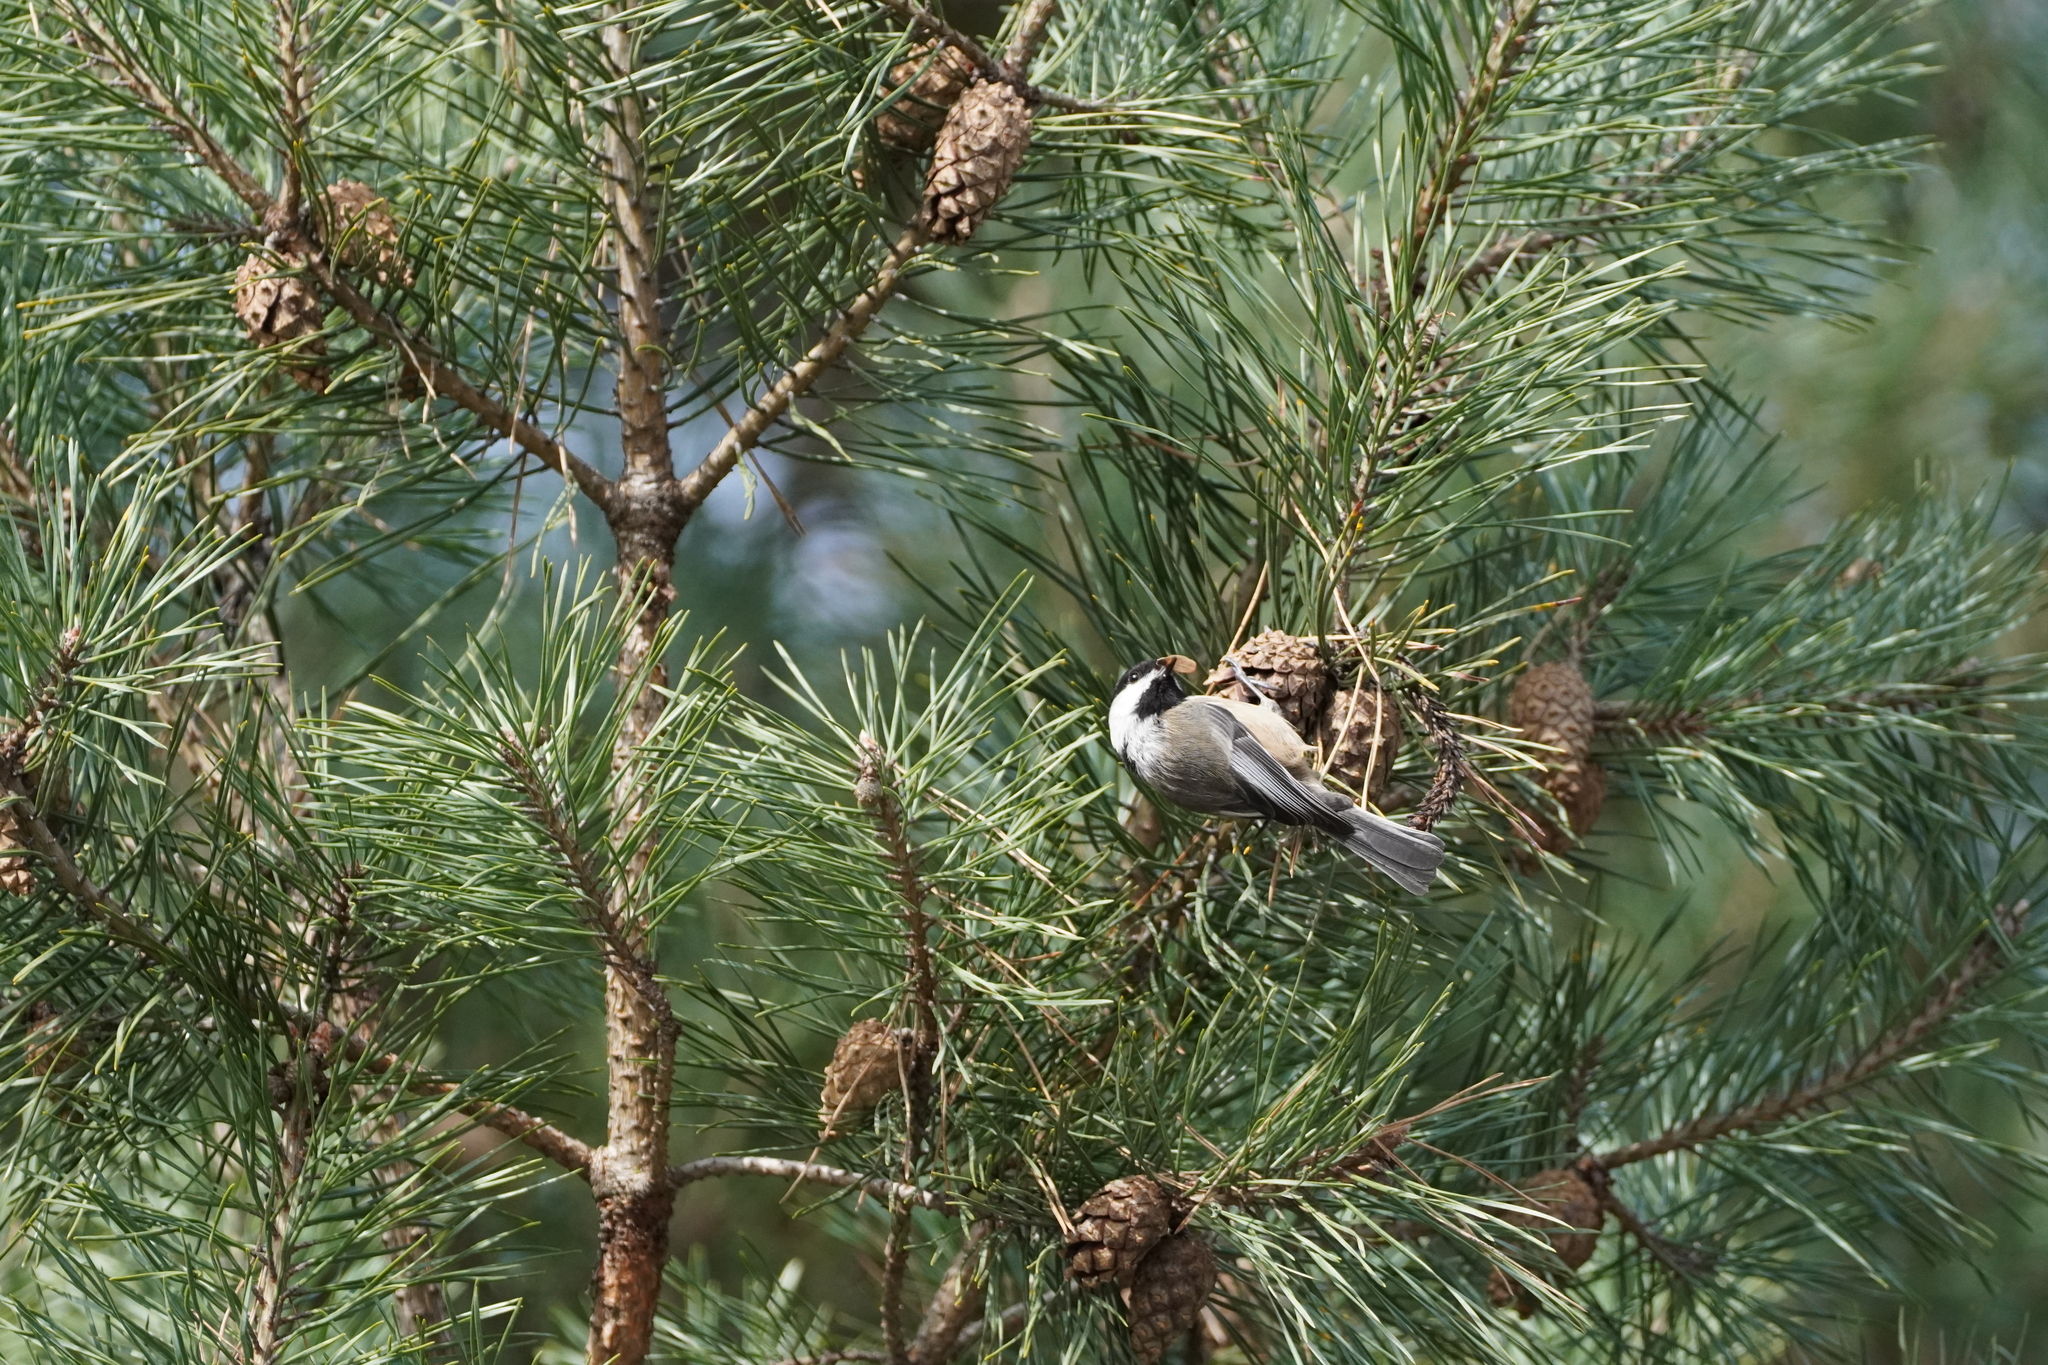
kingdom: Animalia
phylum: Chordata
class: Aves
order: Passeriformes
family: Paridae
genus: Poecile
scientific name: Poecile atricapillus
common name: Black-capped chickadee
